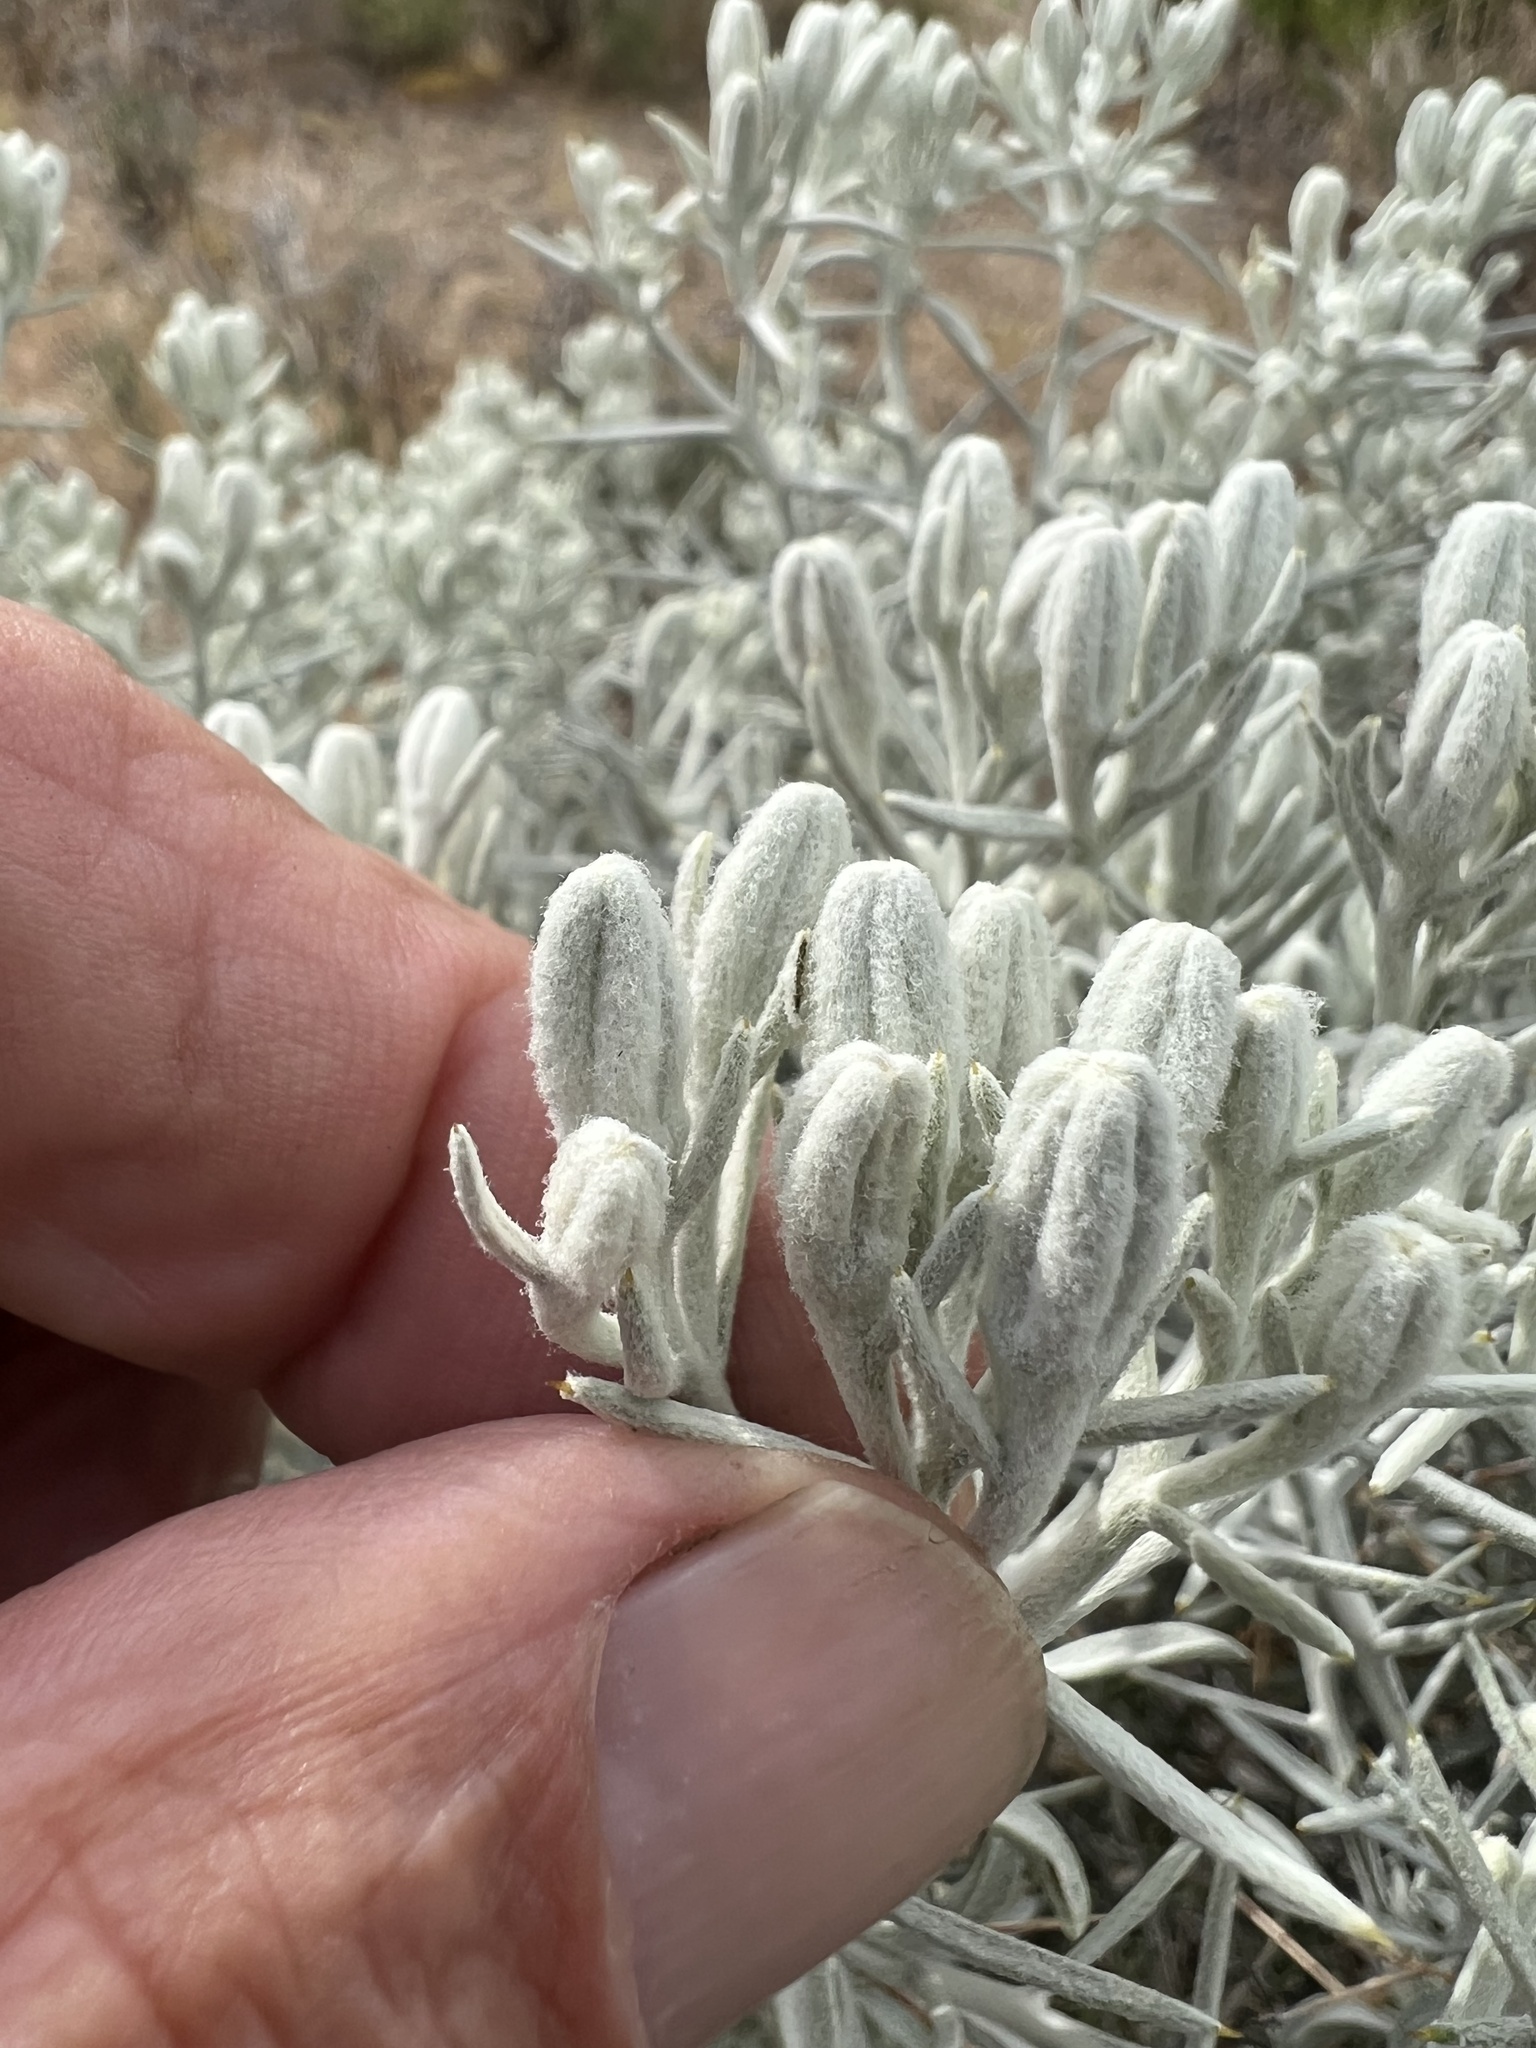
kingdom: Plantae
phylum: Tracheophyta
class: Magnoliopsida
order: Asterales
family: Asteraceae
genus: Tetradymia
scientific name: Tetradymia stenolepis
